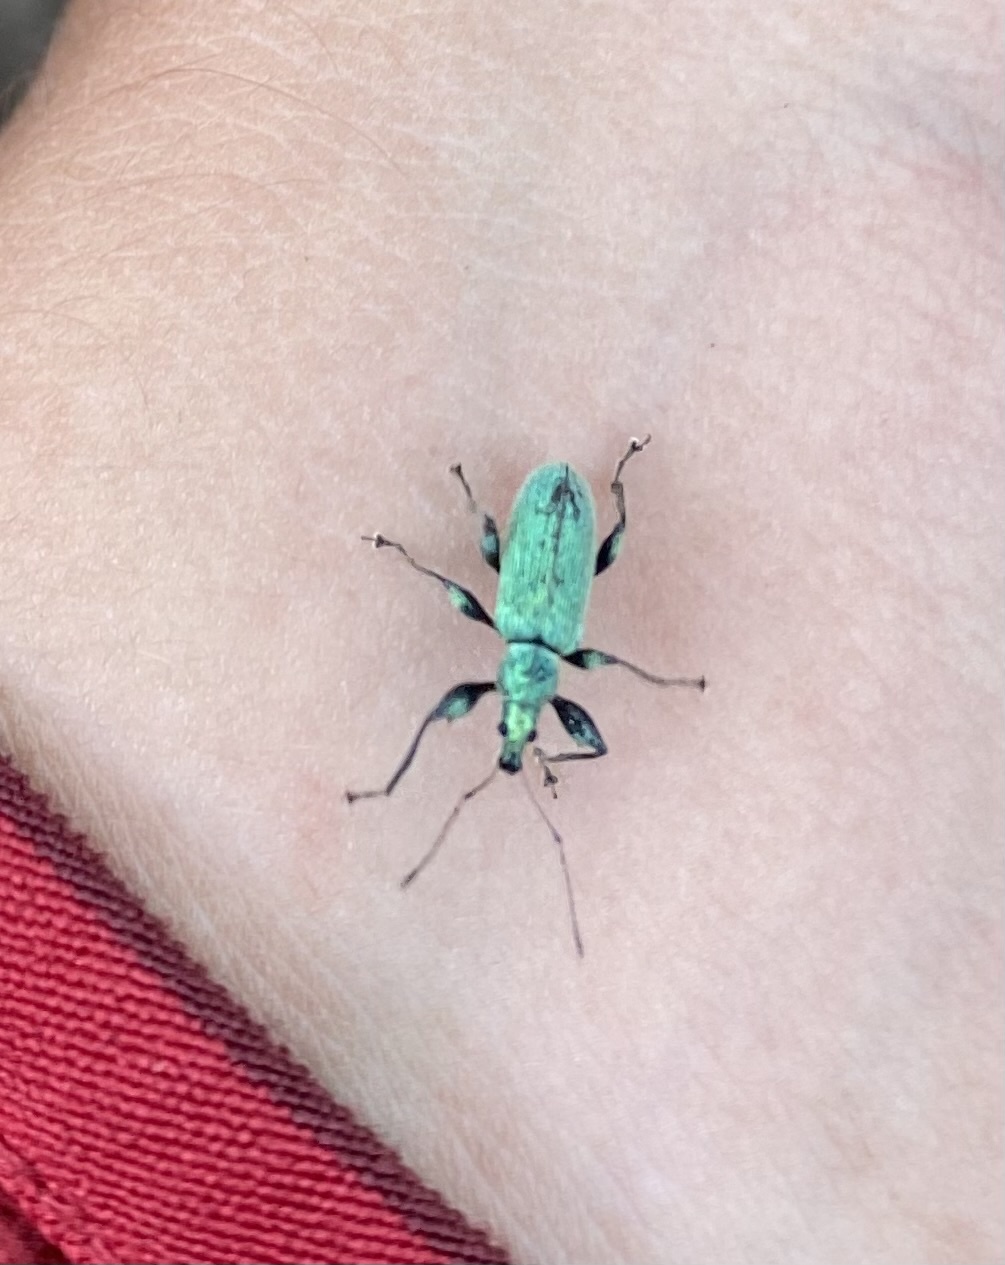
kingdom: Animalia
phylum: Arthropoda
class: Insecta
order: Coleoptera
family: Curculionidae
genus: Phyllobius
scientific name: Phyllobius armatus
